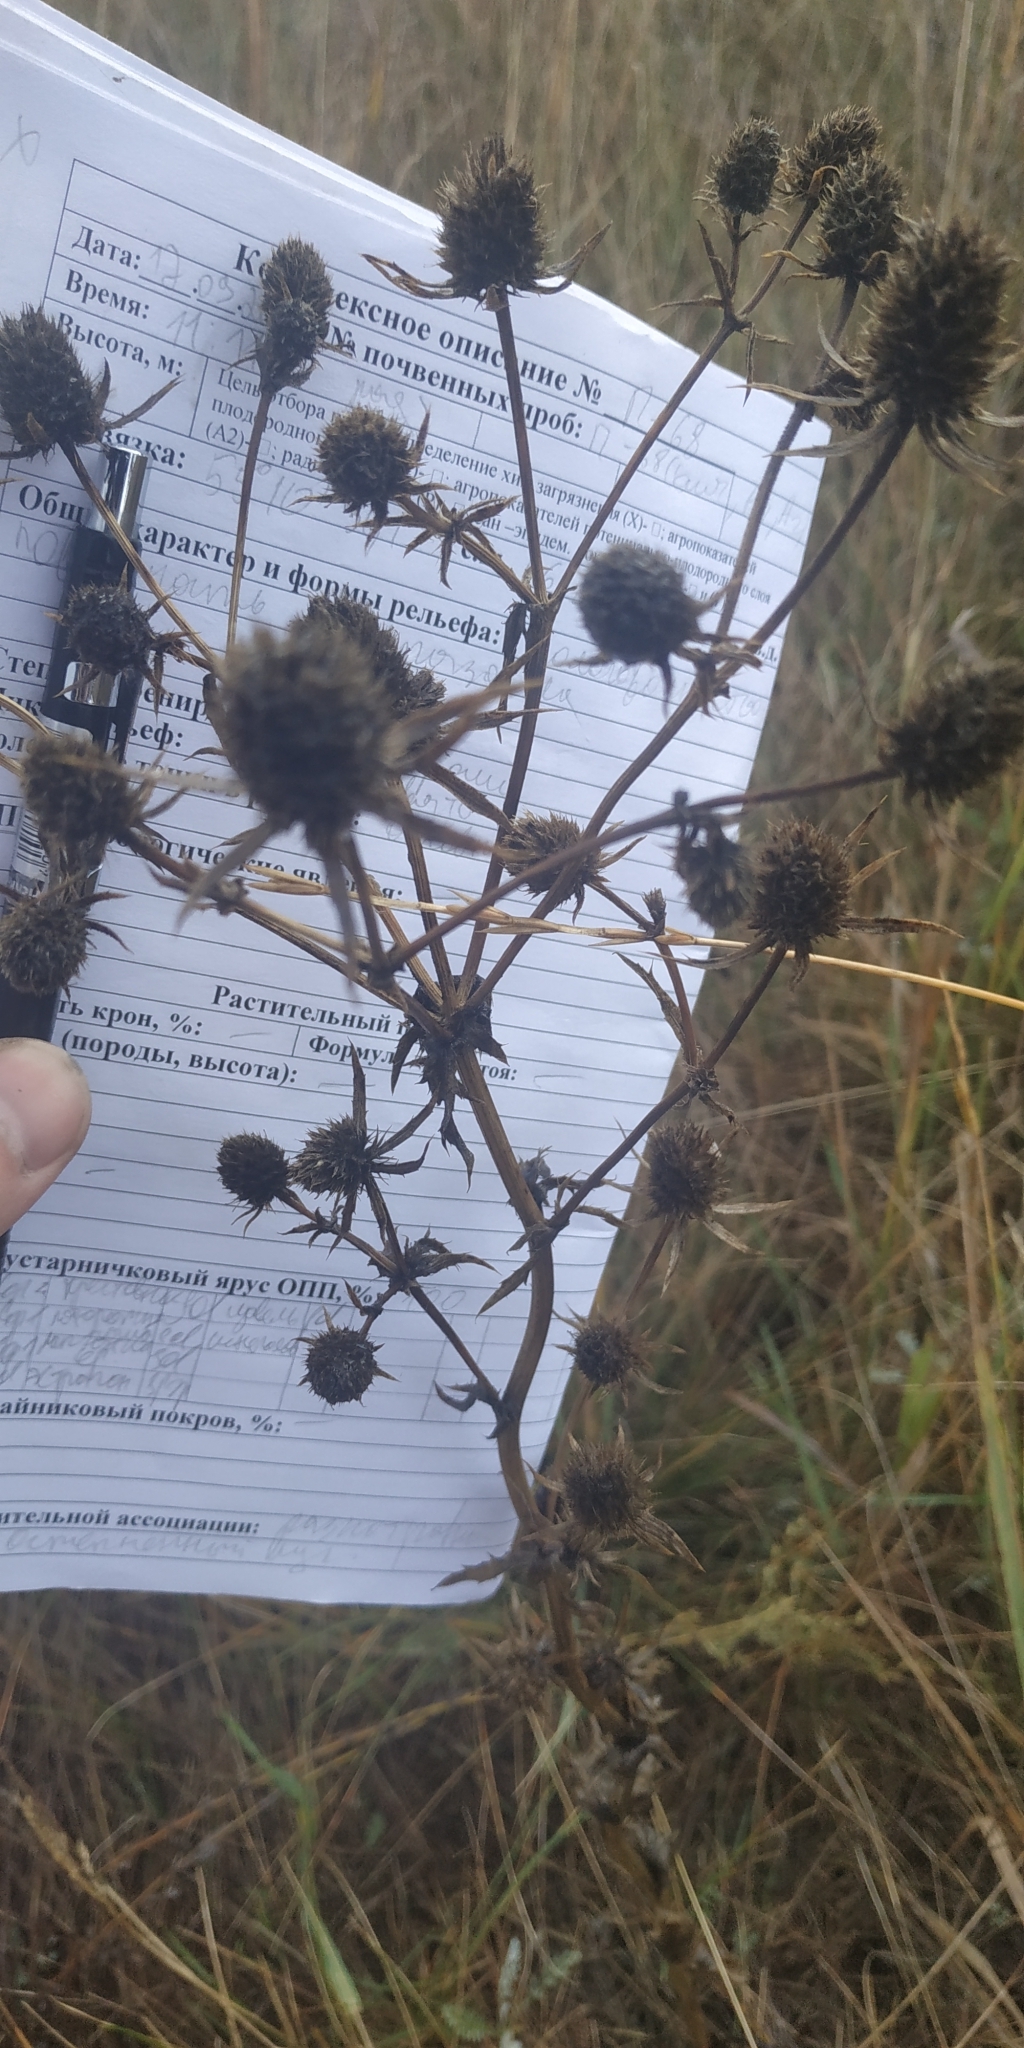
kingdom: Plantae
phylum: Tracheophyta
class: Magnoliopsida
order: Apiales
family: Apiaceae
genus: Eryngium
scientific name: Eryngium planum
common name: Blue eryngo
